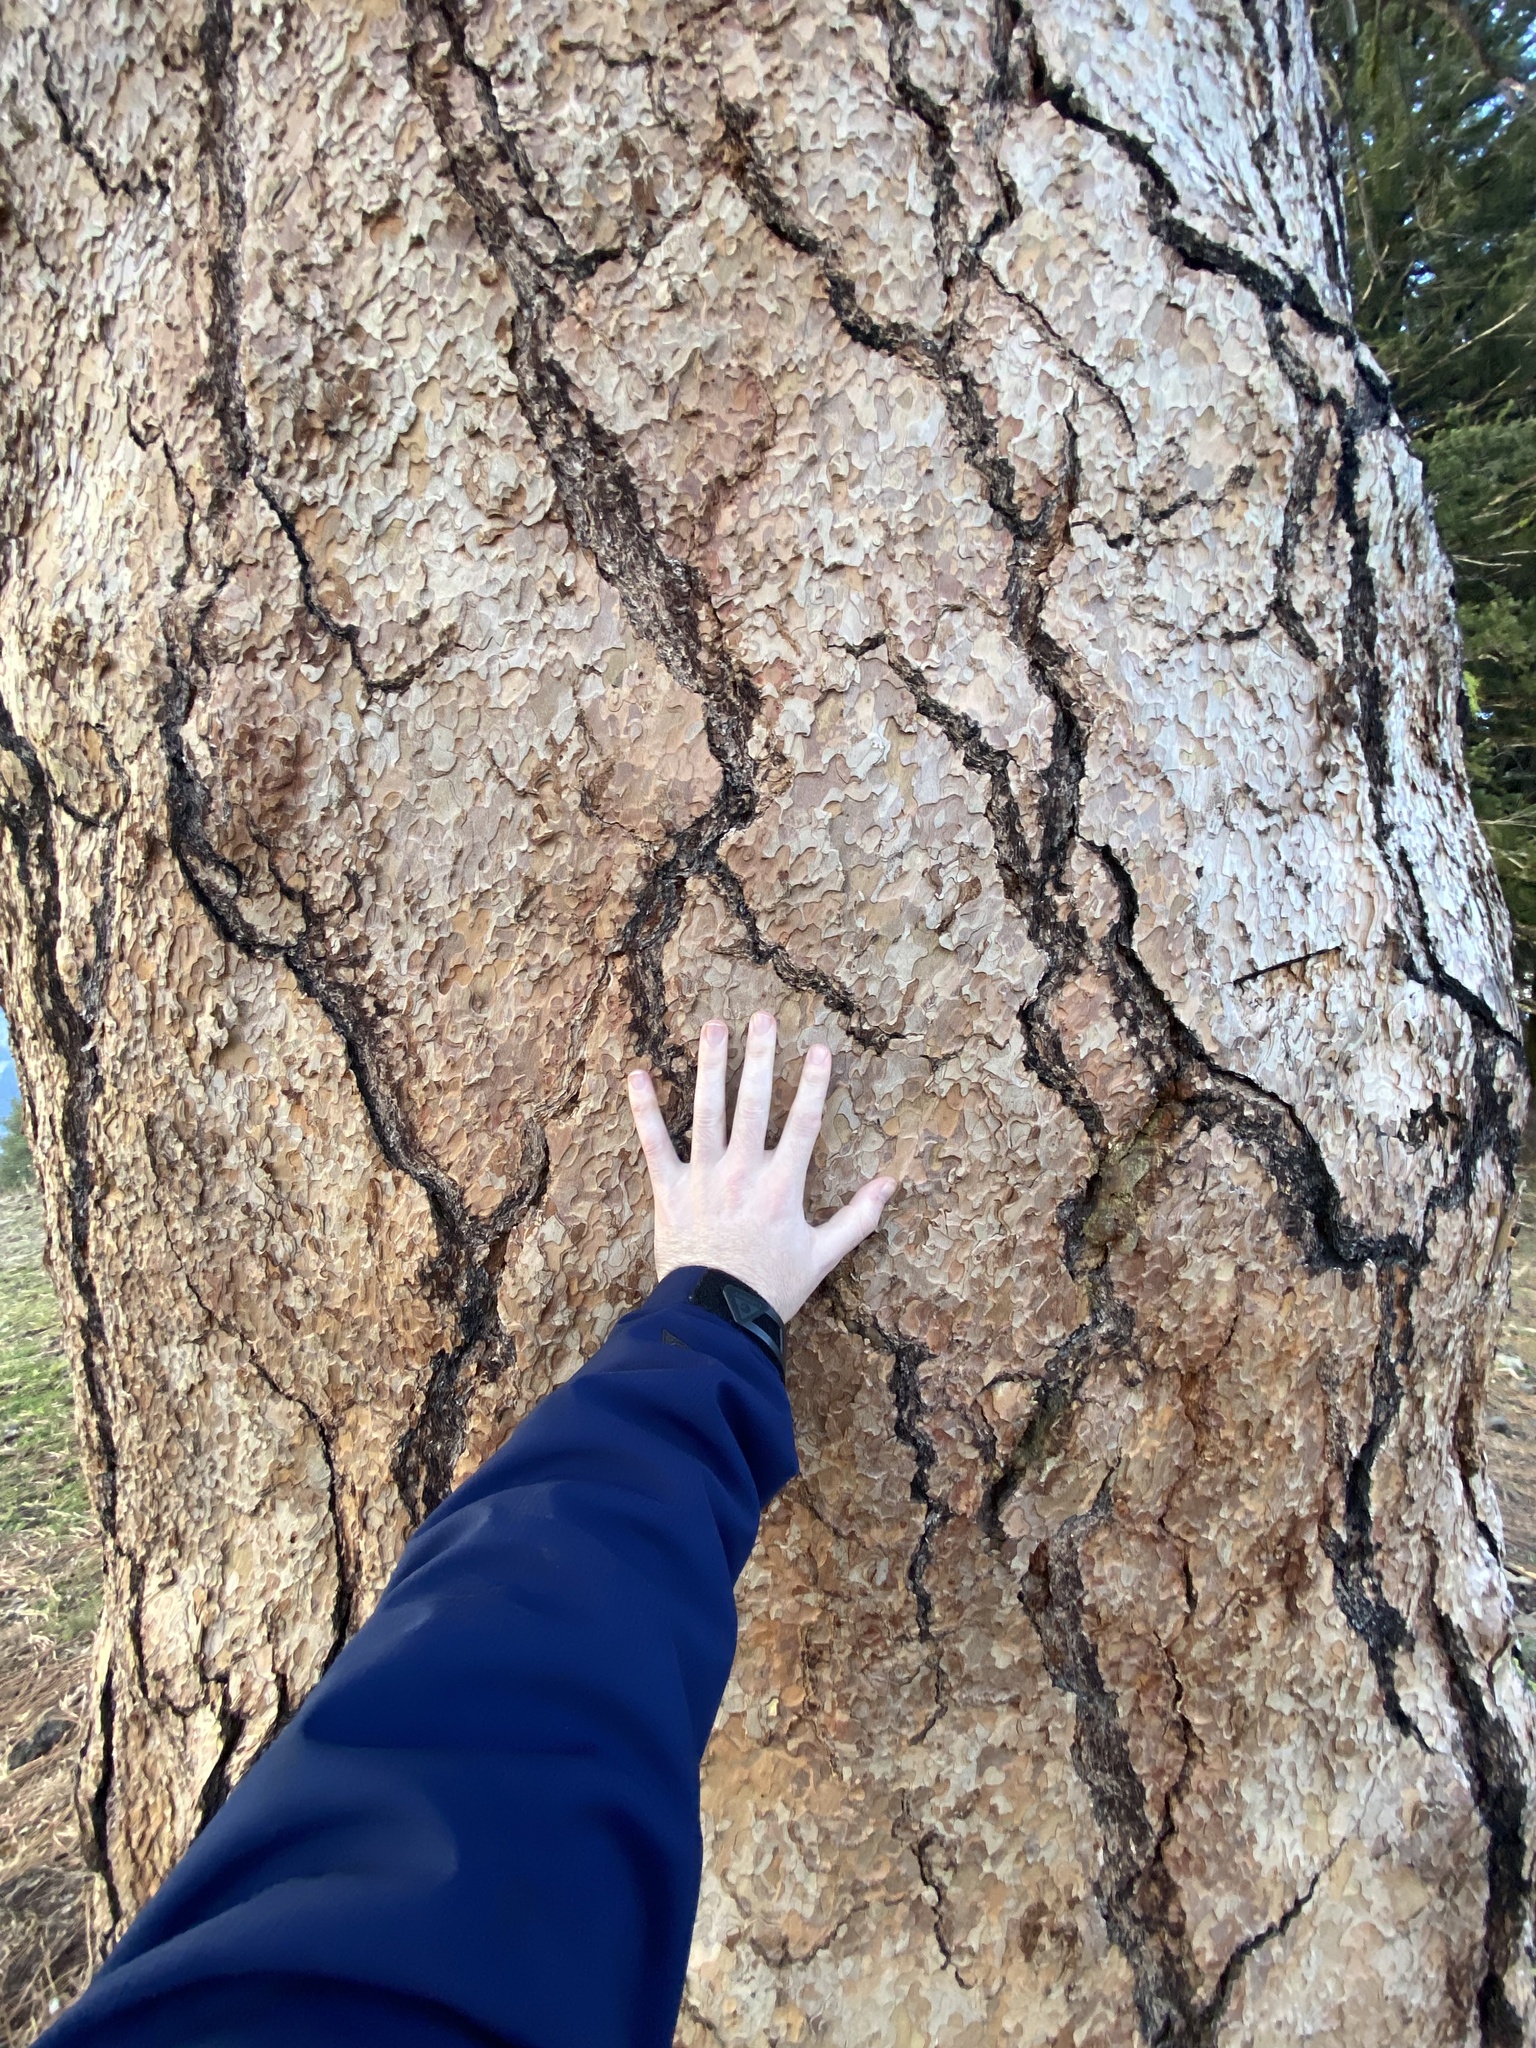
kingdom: Plantae
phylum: Tracheophyta
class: Pinopsida
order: Pinales
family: Pinaceae
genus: Pinus
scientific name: Pinus ponderosa
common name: Western yellow-pine
